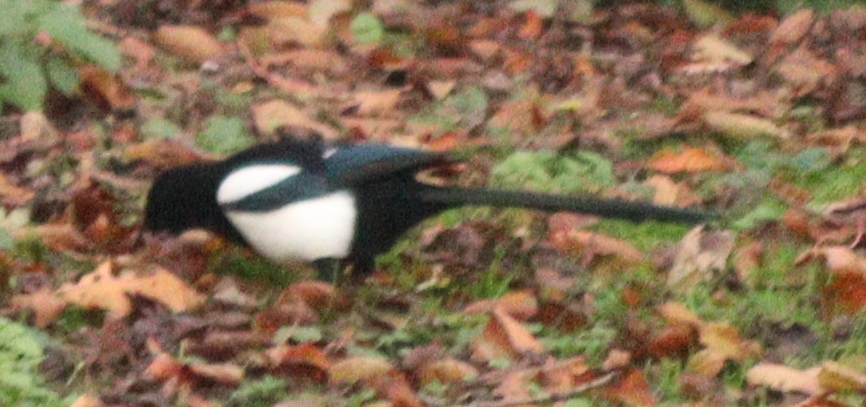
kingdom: Animalia
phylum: Chordata
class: Aves
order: Passeriformes
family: Corvidae
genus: Pica
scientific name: Pica pica
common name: Eurasian magpie
